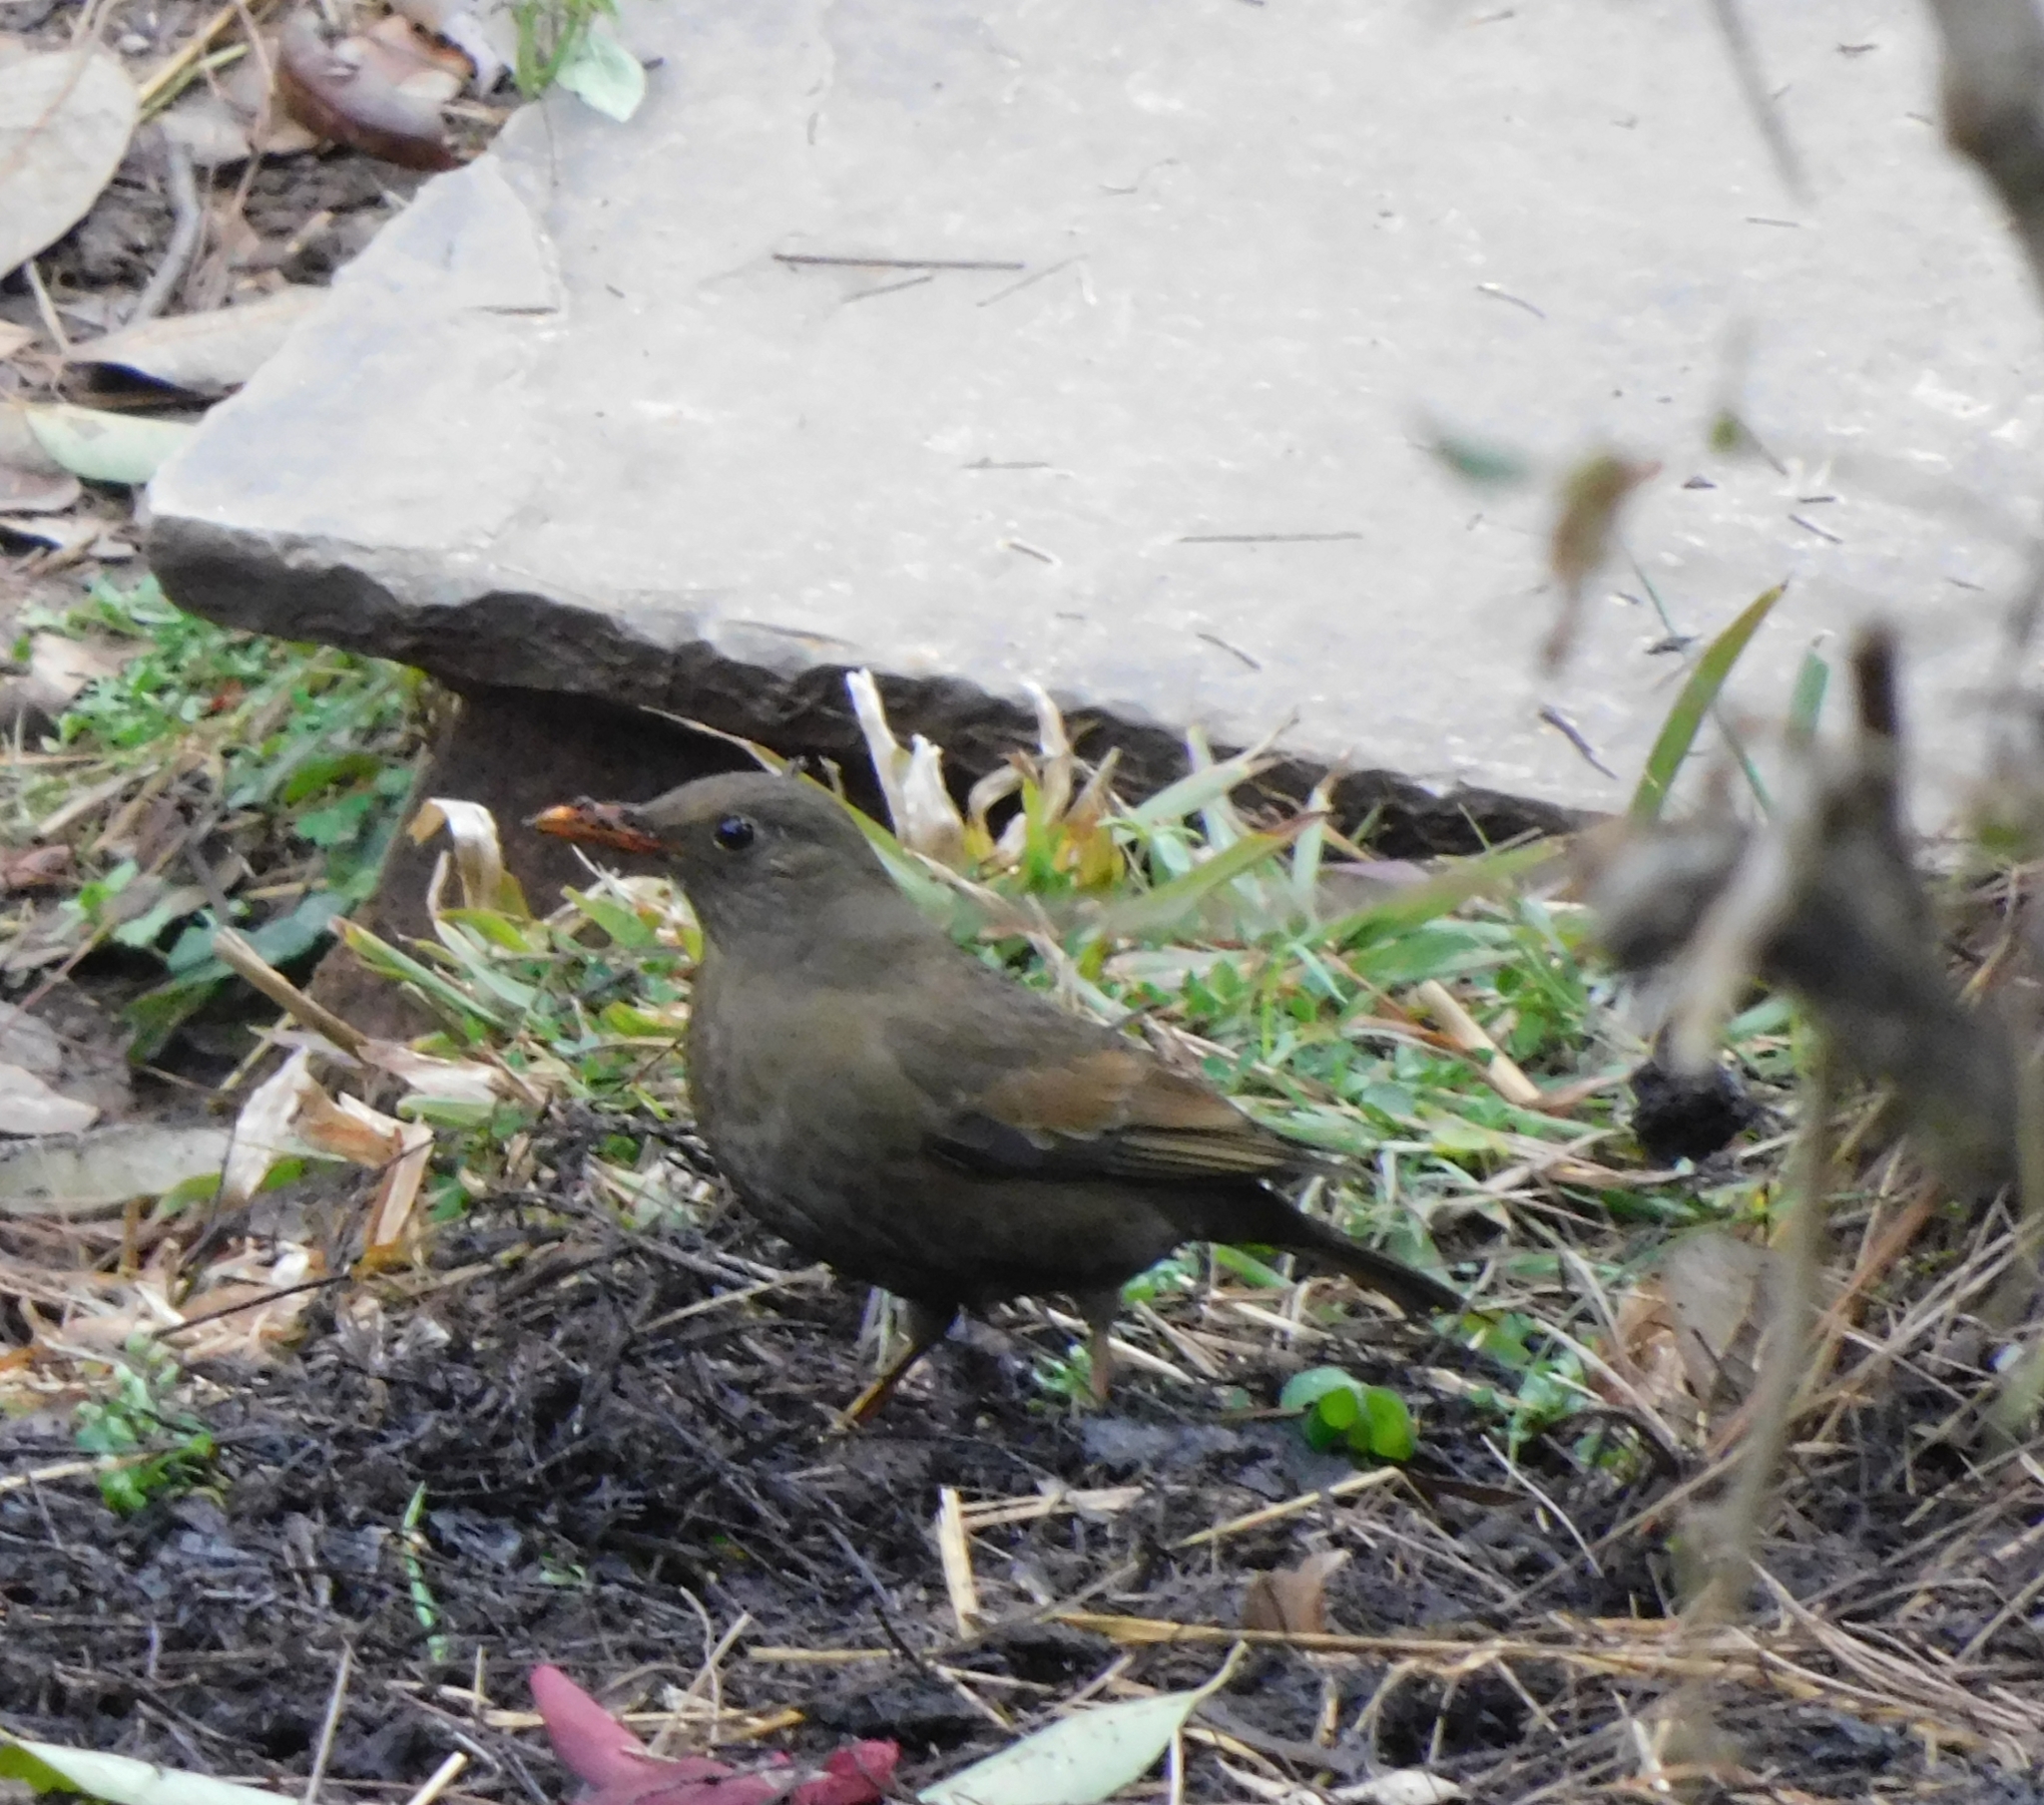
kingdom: Animalia
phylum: Chordata
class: Aves
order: Passeriformes
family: Turdidae
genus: Turdus
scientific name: Turdus boulboul
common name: Grey-winged blackbird
